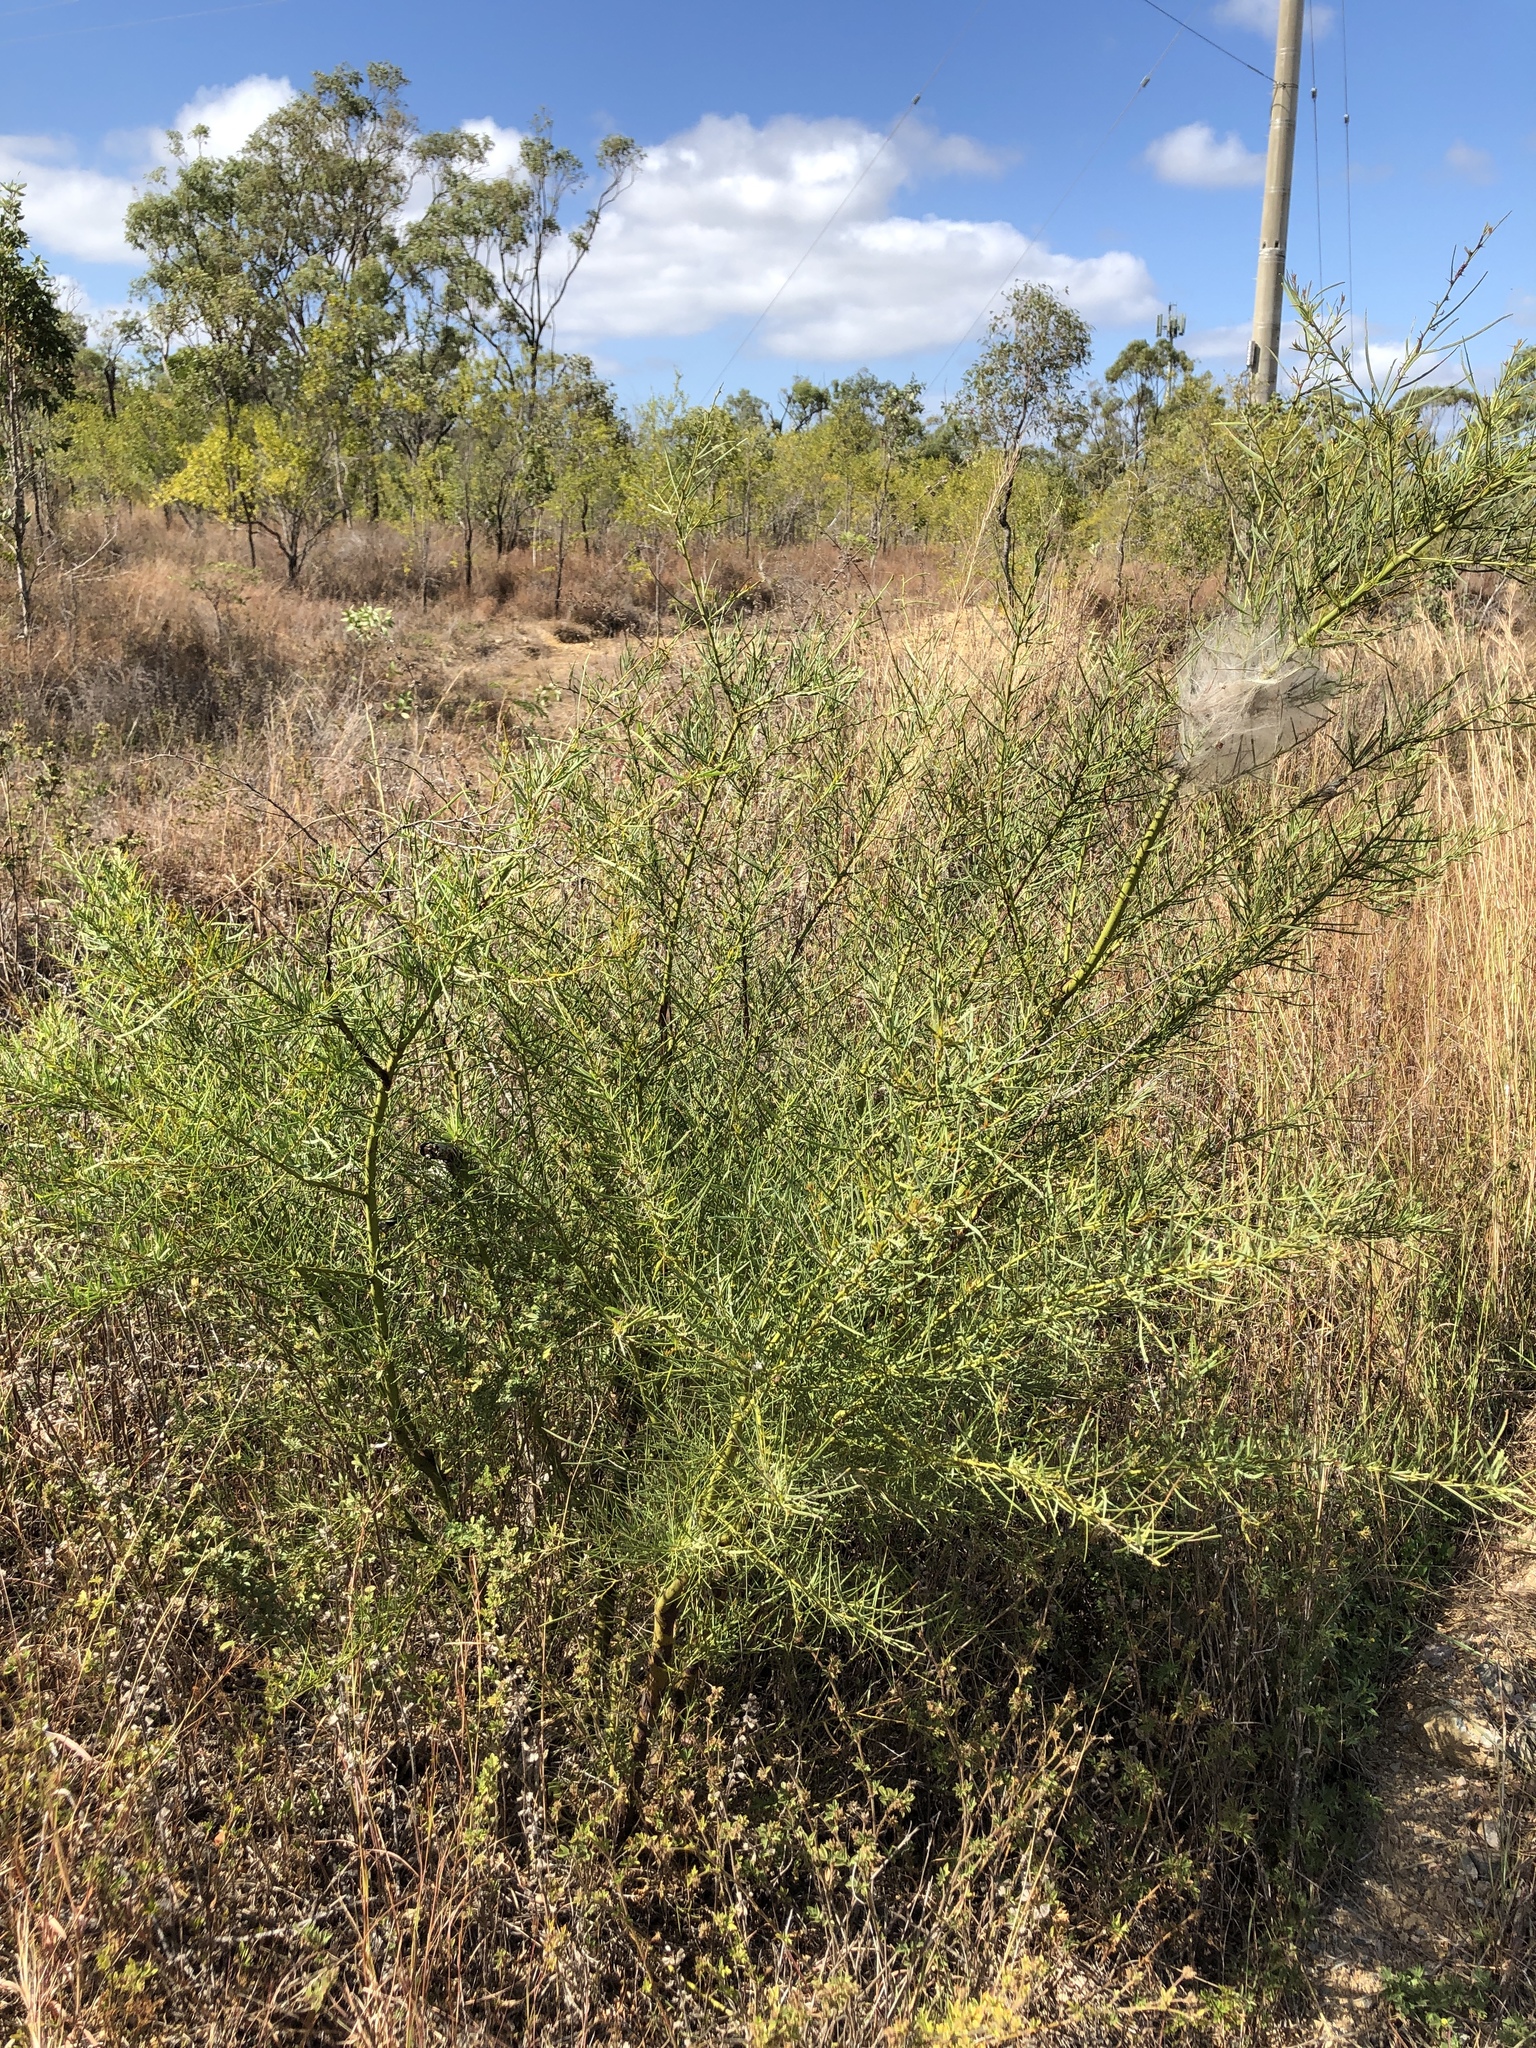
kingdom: Plantae
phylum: Tracheophyta
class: Magnoliopsida
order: Fabales
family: Fabaceae
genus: Acacia
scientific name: Acacia victoriae
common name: Bramble wattle
